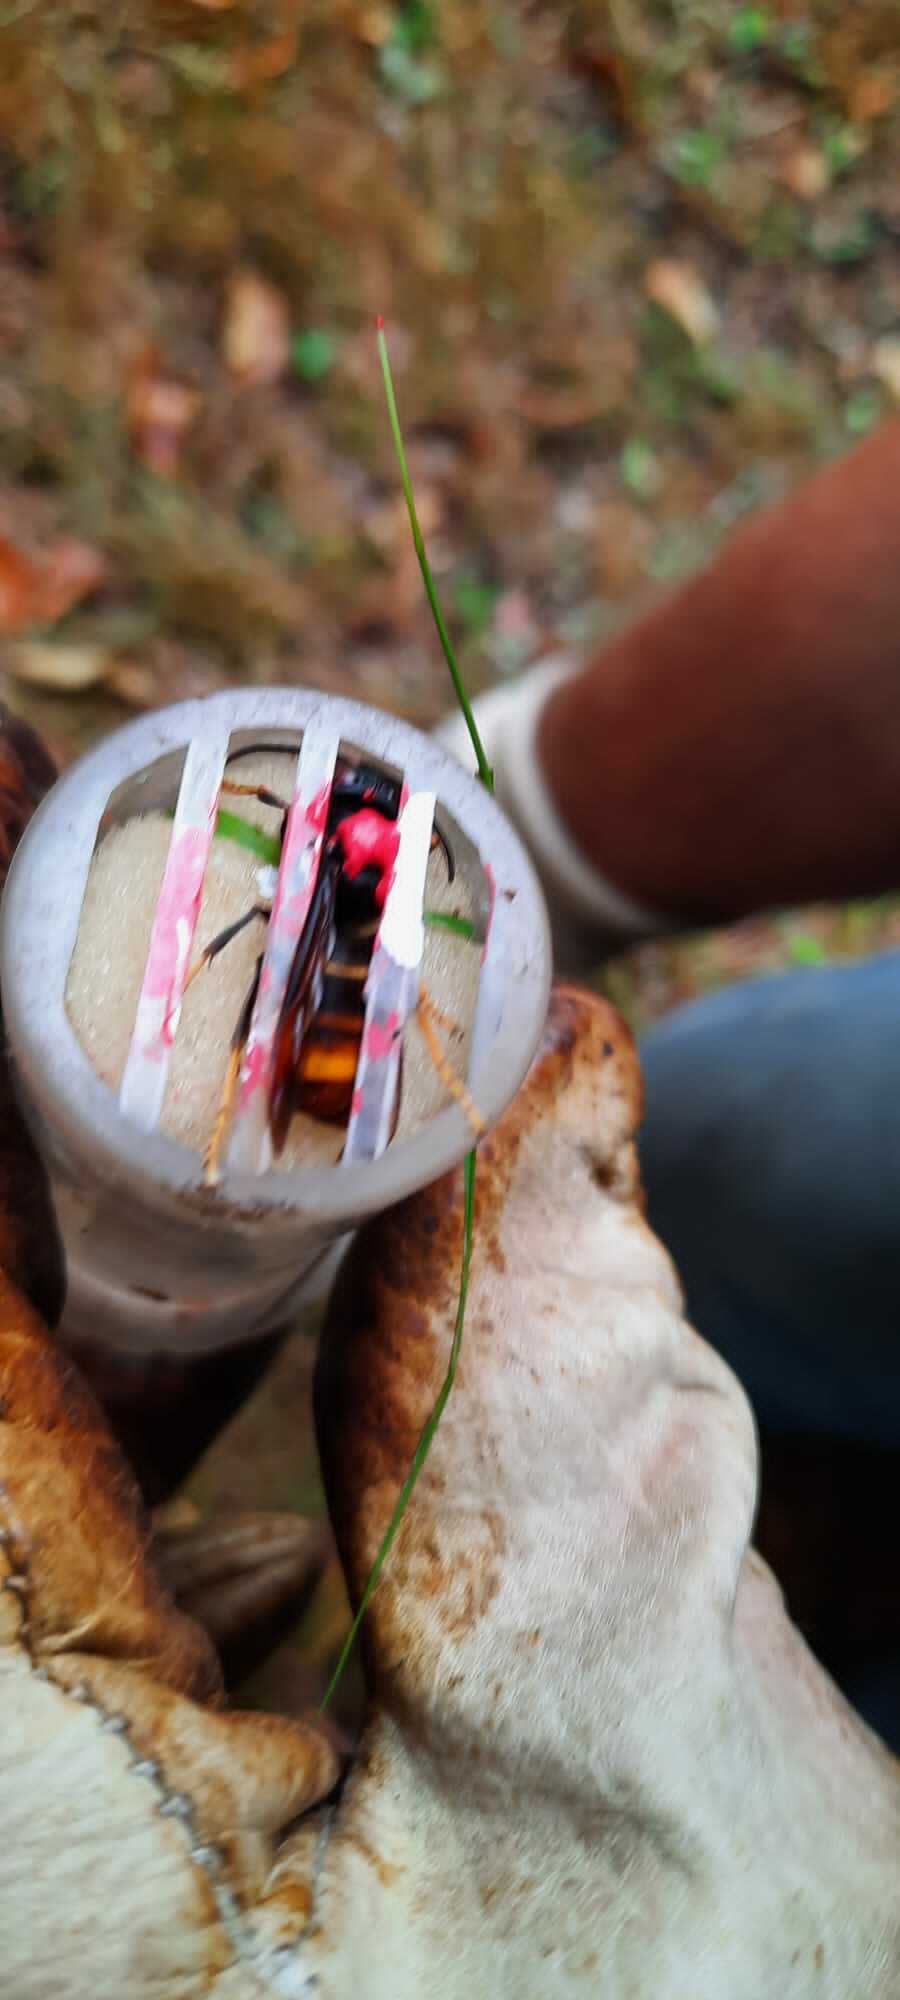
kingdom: Animalia
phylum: Arthropoda
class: Insecta
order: Hymenoptera
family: Vespidae
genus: Vespa
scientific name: Vespa velutina
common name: Asian hornet
